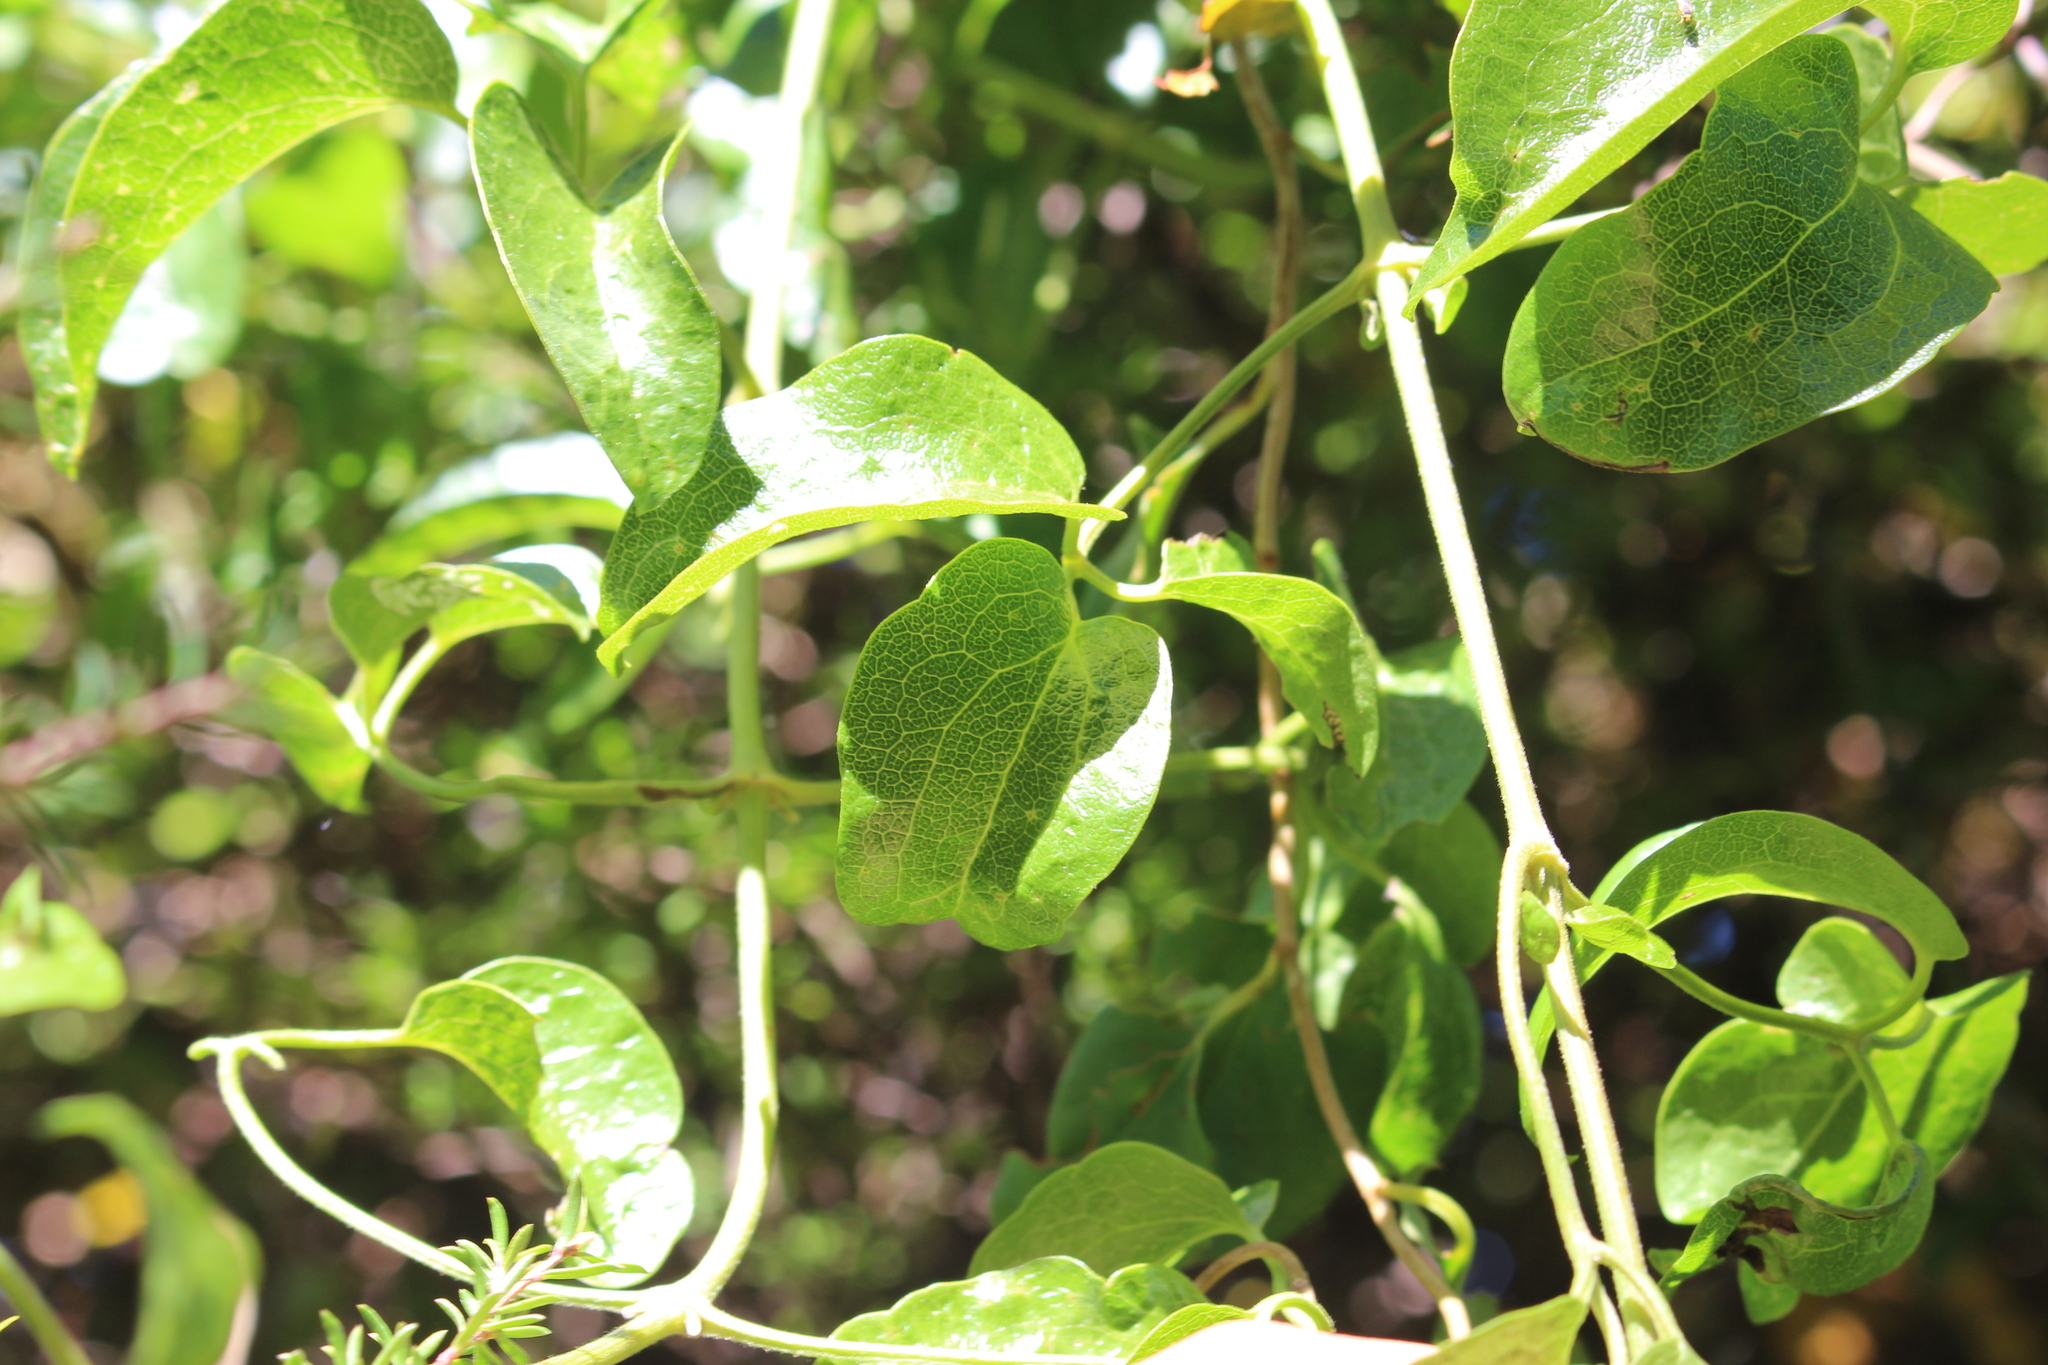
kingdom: Plantae
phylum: Tracheophyta
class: Magnoliopsida
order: Ranunculales
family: Ranunculaceae
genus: Clematis
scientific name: Clematis foetida
